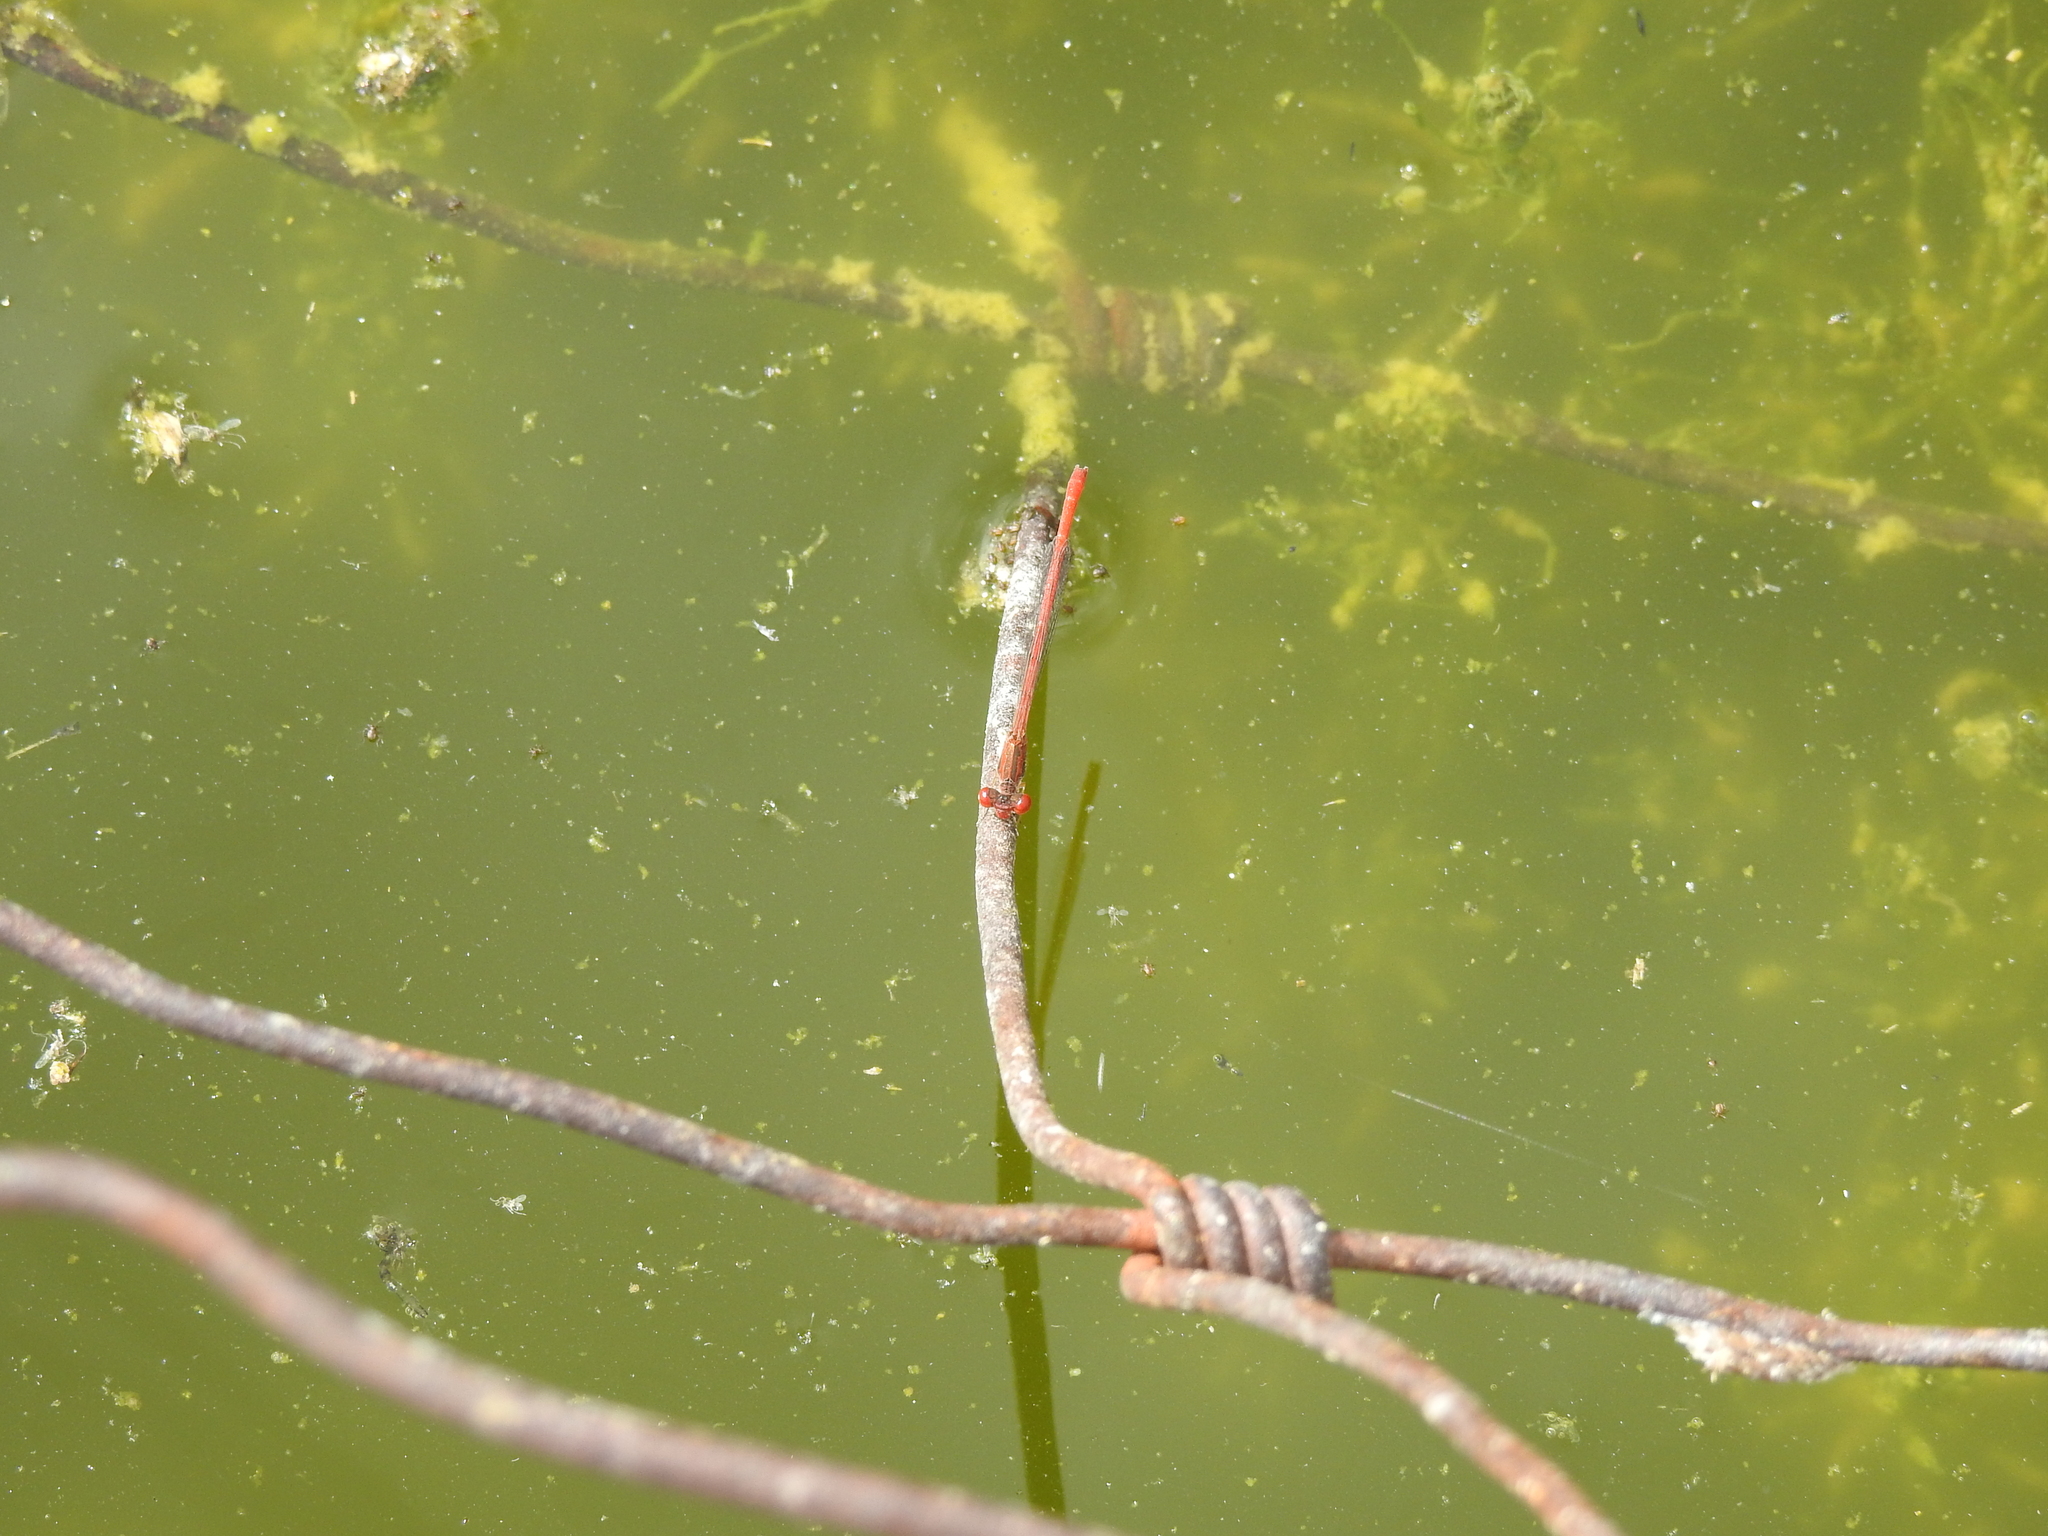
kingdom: Animalia
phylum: Arthropoda
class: Insecta
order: Odonata
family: Coenagrionidae
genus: Telebasis
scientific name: Telebasis salva
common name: Desert firetail
